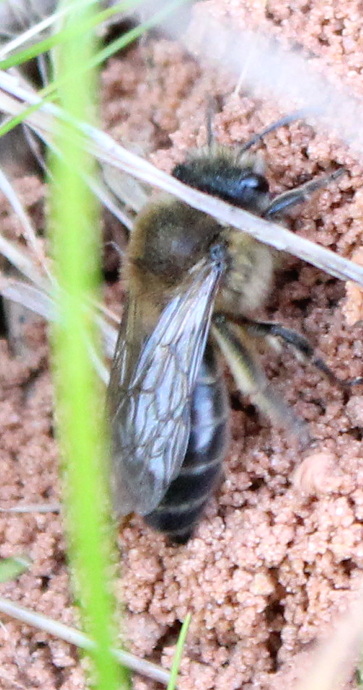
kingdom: Animalia
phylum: Arthropoda
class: Insecta
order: Hymenoptera
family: Colletidae
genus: Colletes
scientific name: Colletes cunicularius
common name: Early colletes
